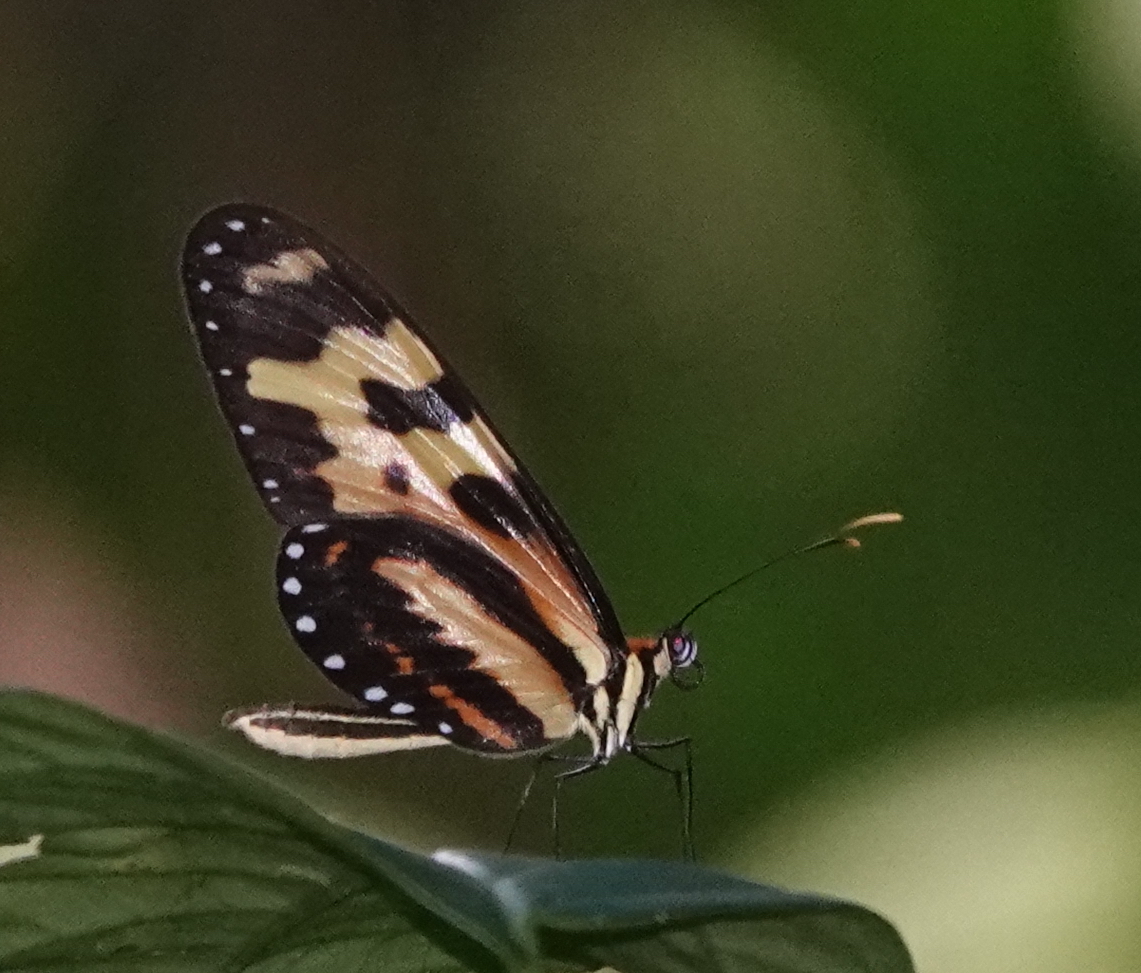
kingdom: Animalia
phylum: Arthropoda
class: Insecta
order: Lepidoptera
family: Nymphalidae
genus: Mechanitis
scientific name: Mechanitis menapis
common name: Menapis tigerwing
